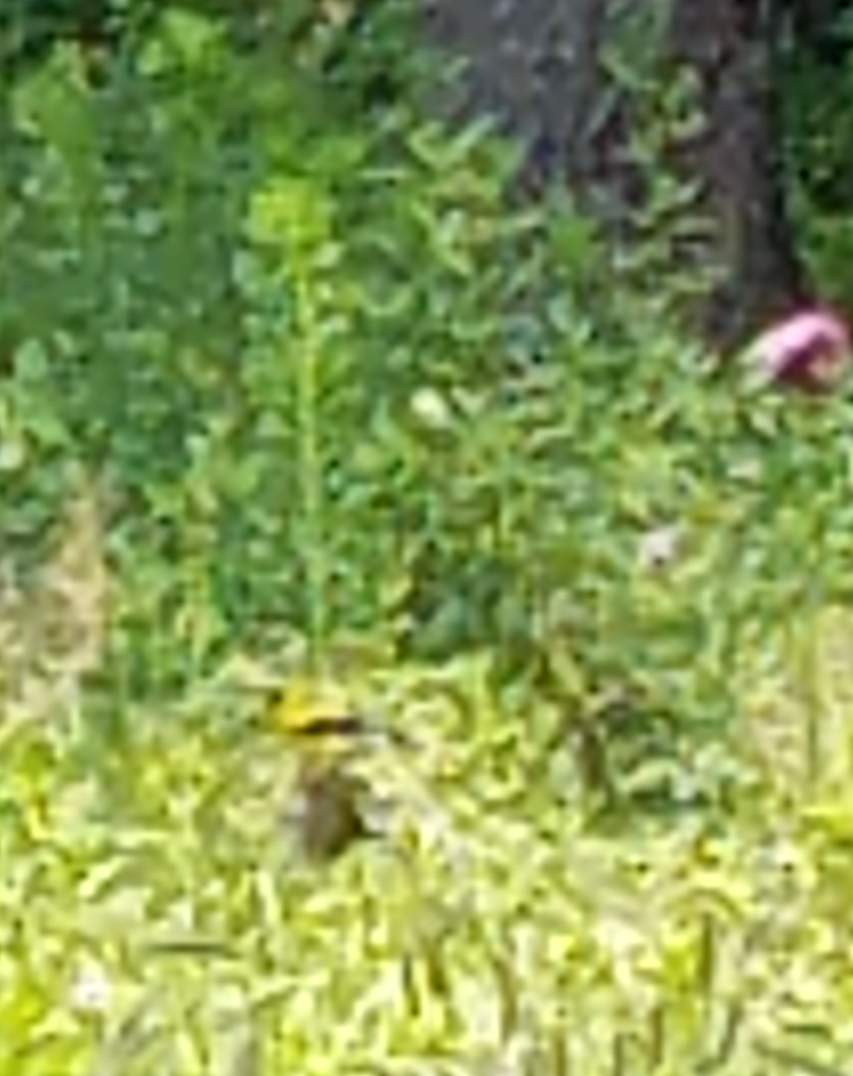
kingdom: Animalia
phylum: Chordata
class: Aves
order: Passeriformes
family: Fringillidae
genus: Spinus
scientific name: Spinus tristis
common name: American goldfinch
